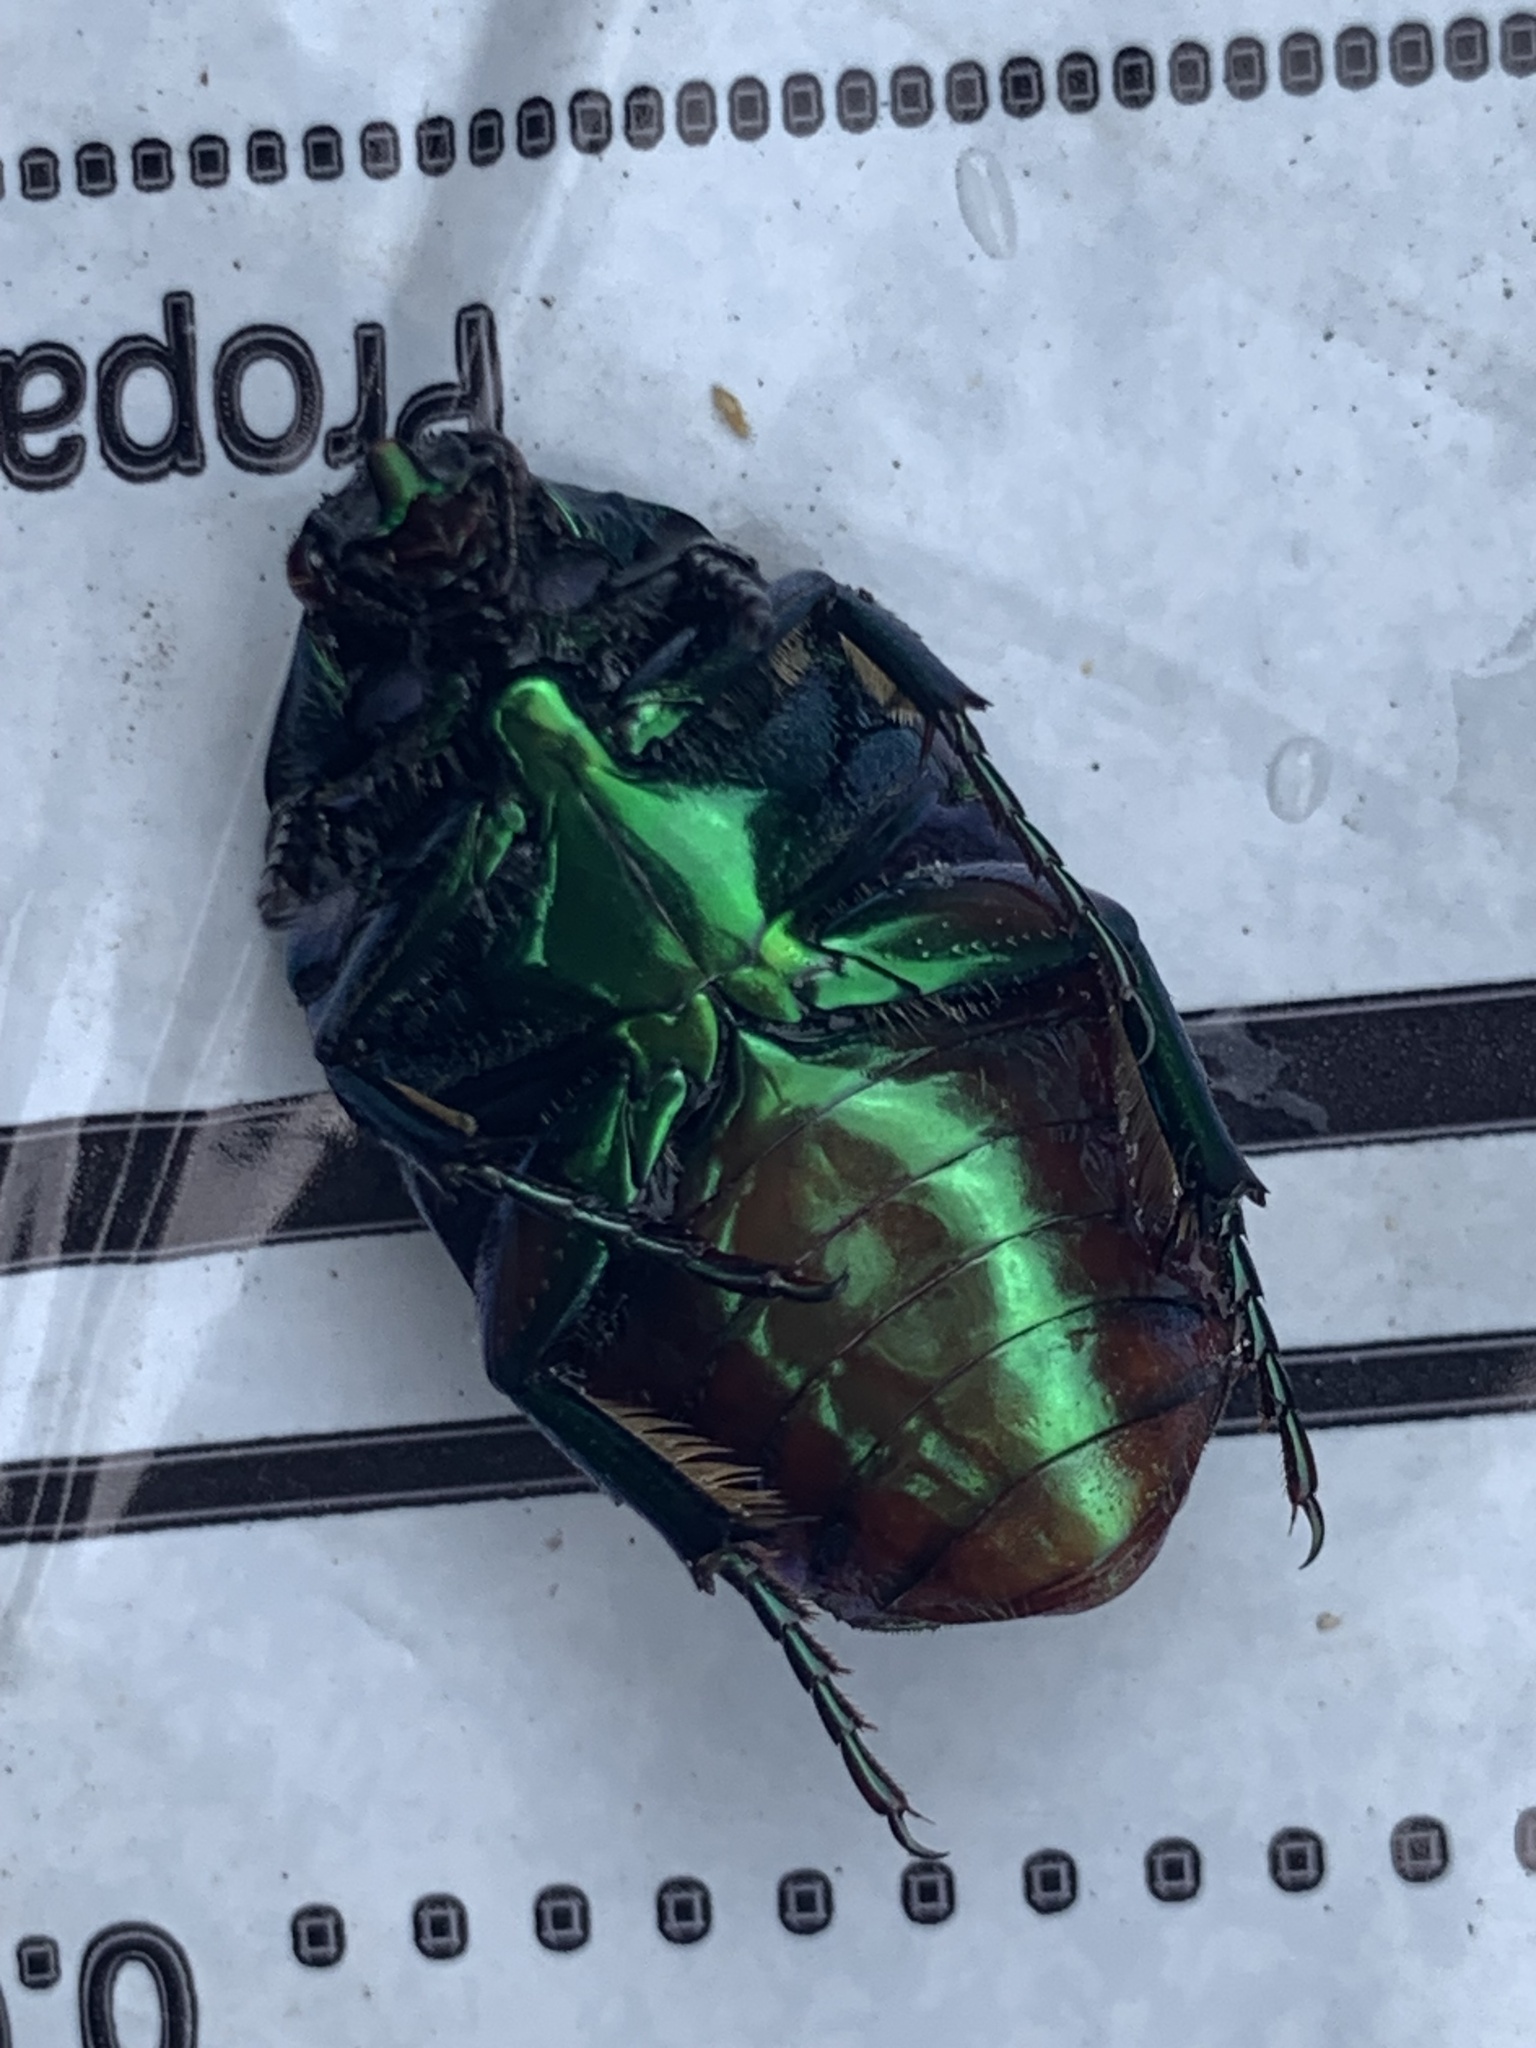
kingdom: Animalia
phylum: Arthropoda
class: Insecta
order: Coleoptera
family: Scarabaeidae
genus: Cotinis
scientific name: Cotinis mutabilis
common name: Figeater beetle
